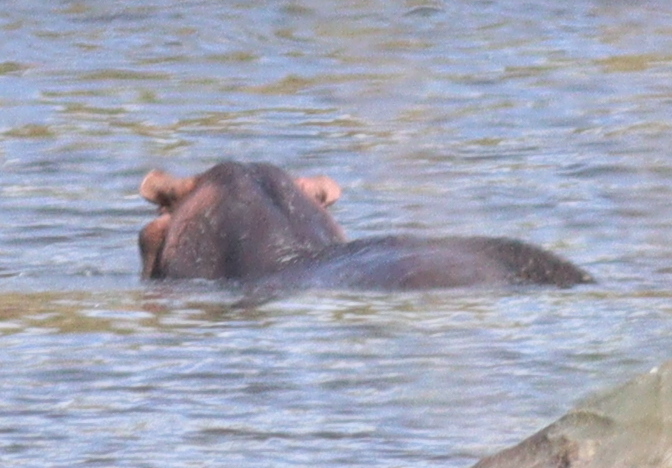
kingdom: Animalia
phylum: Chordata
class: Mammalia
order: Artiodactyla
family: Hippopotamidae
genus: Hippopotamus
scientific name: Hippopotamus amphibius
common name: Common hippopotamus
